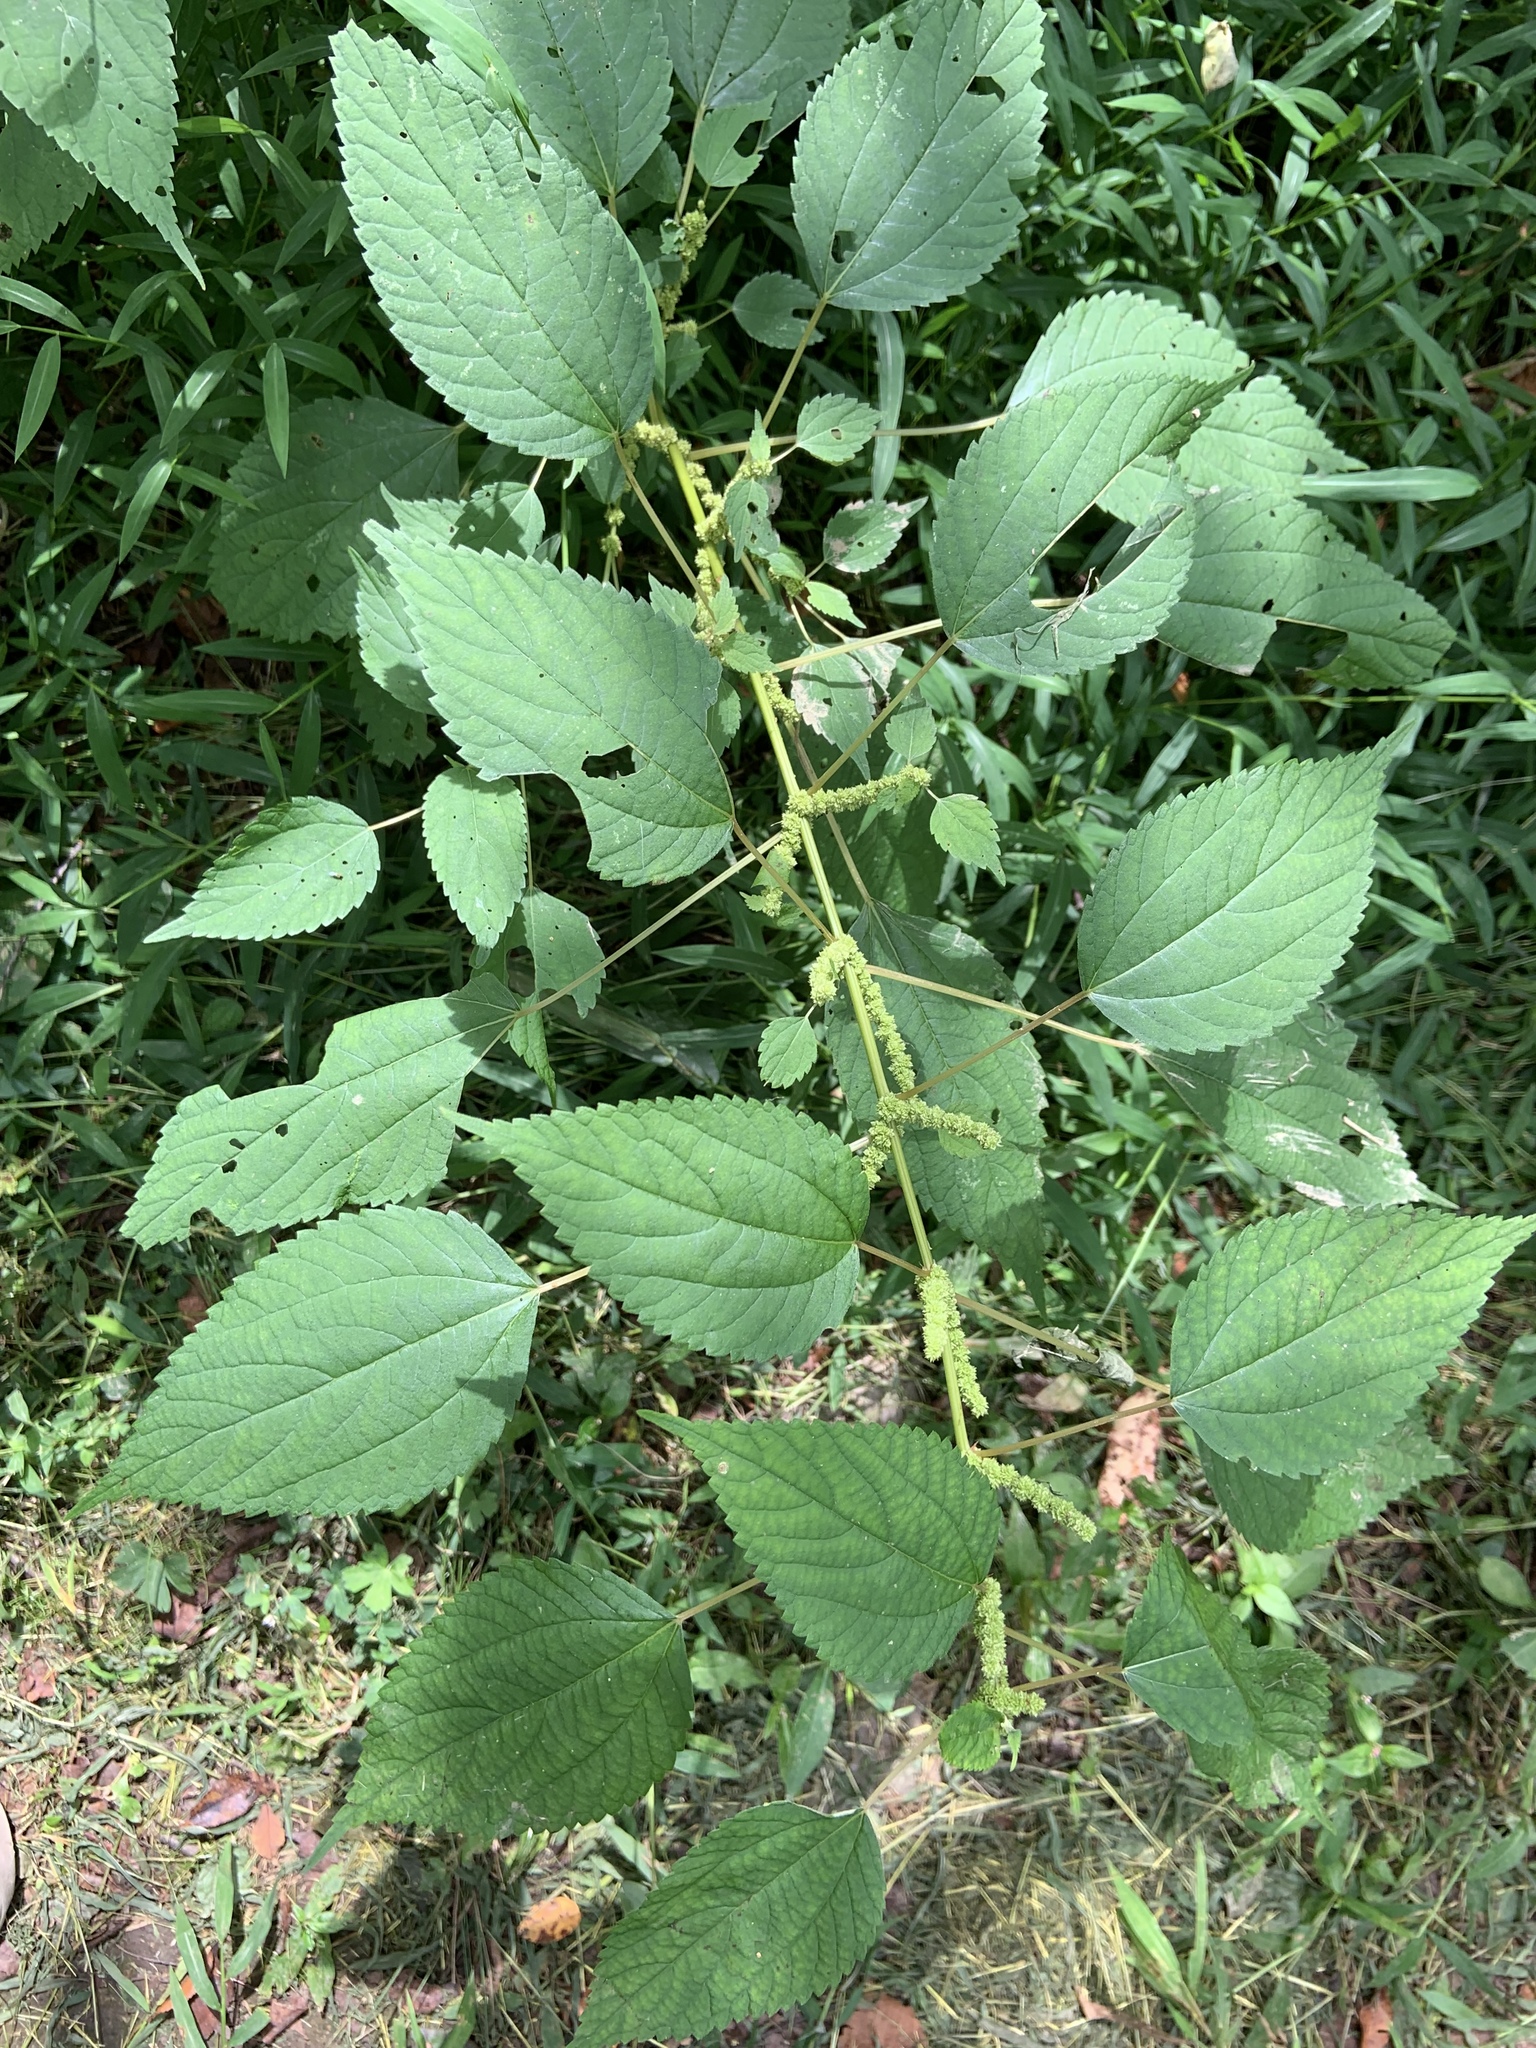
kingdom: Plantae
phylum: Tracheophyta
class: Magnoliopsida
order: Rosales
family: Urticaceae
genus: Boehmeria
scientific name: Boehmeria cylindrica
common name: Bog-hemp
